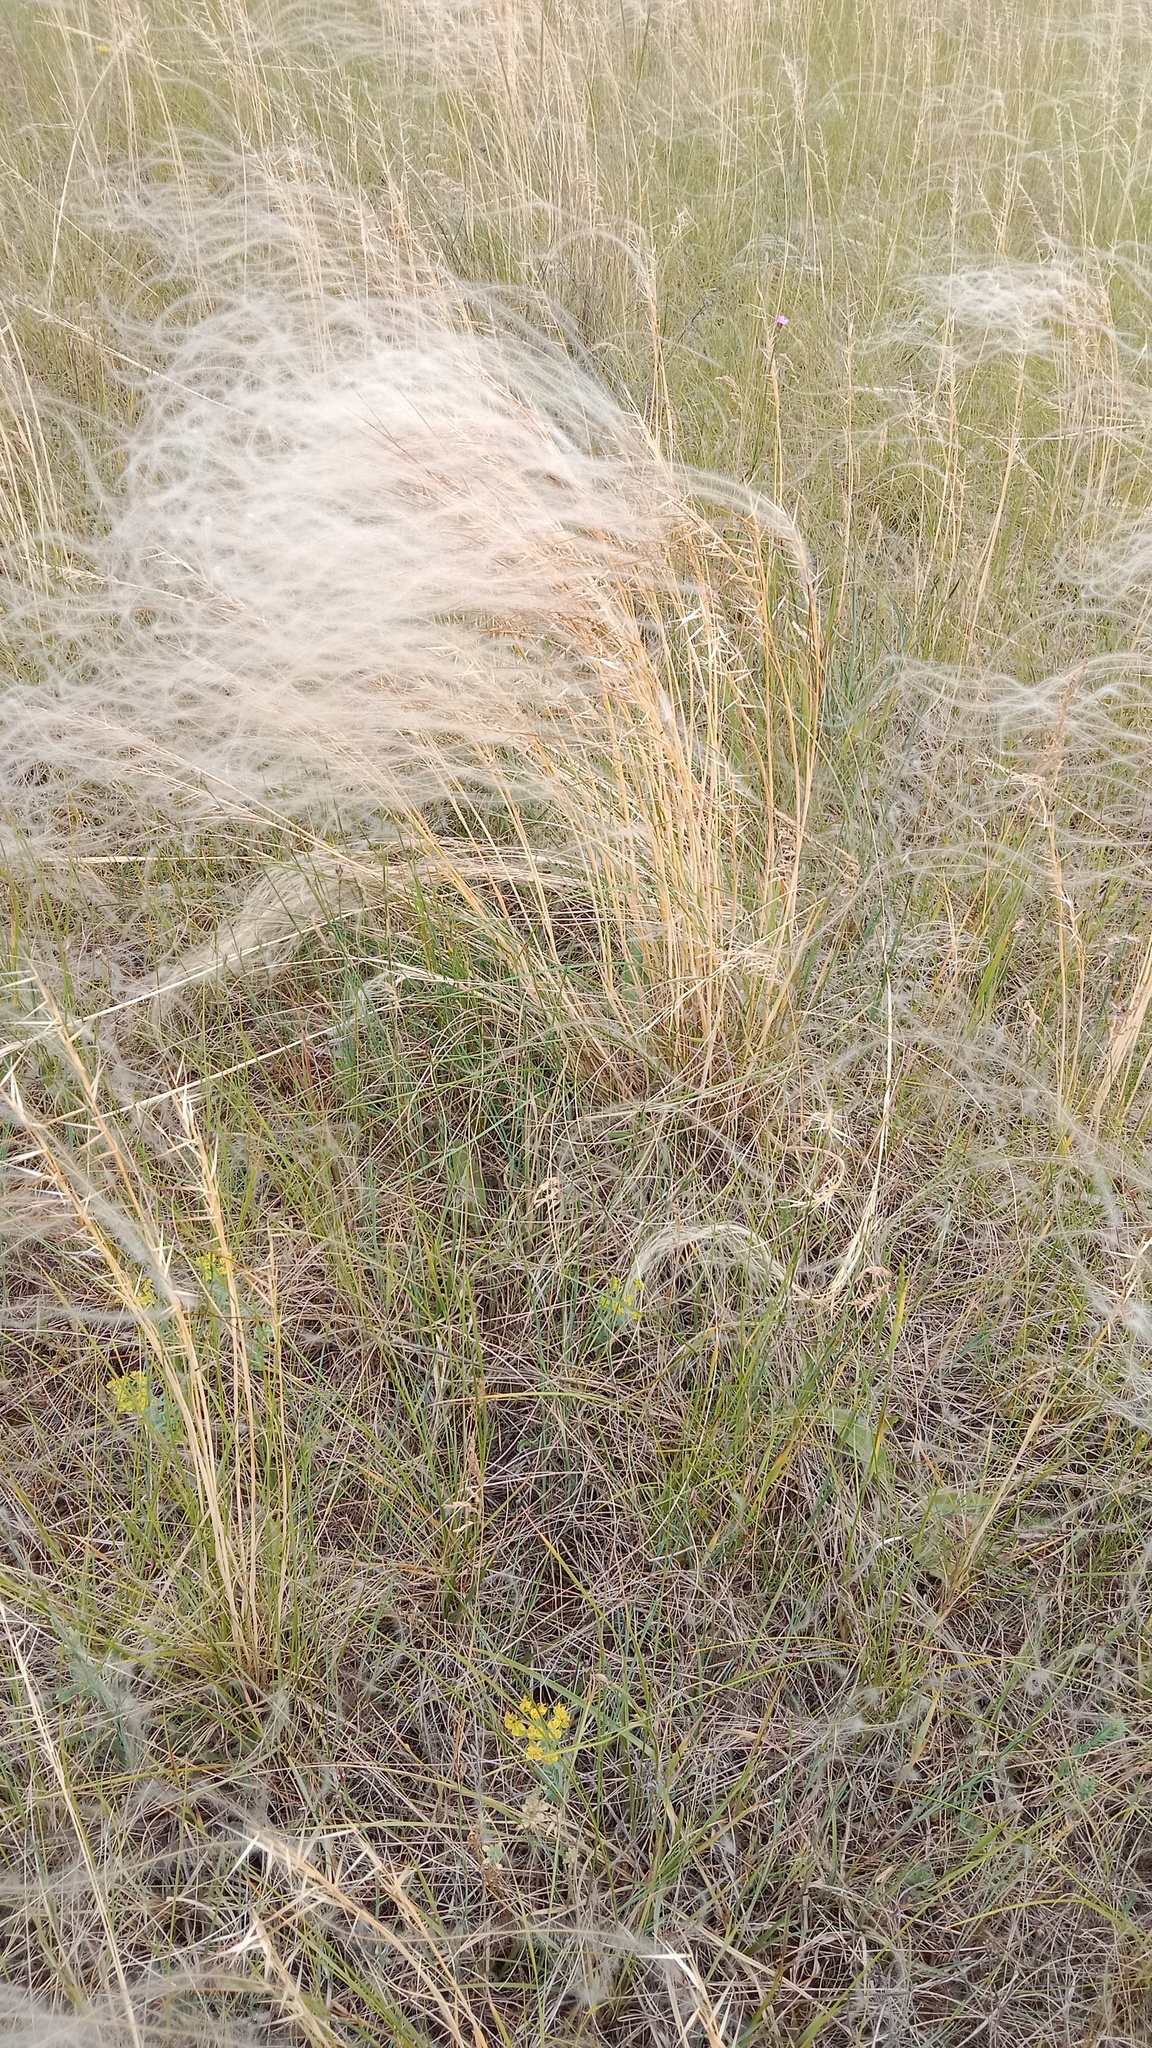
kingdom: Plantae
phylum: Tracheophyta
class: Liliopsida
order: Poales
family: Poaceae
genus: Stipa
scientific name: Stipa borysthenica
